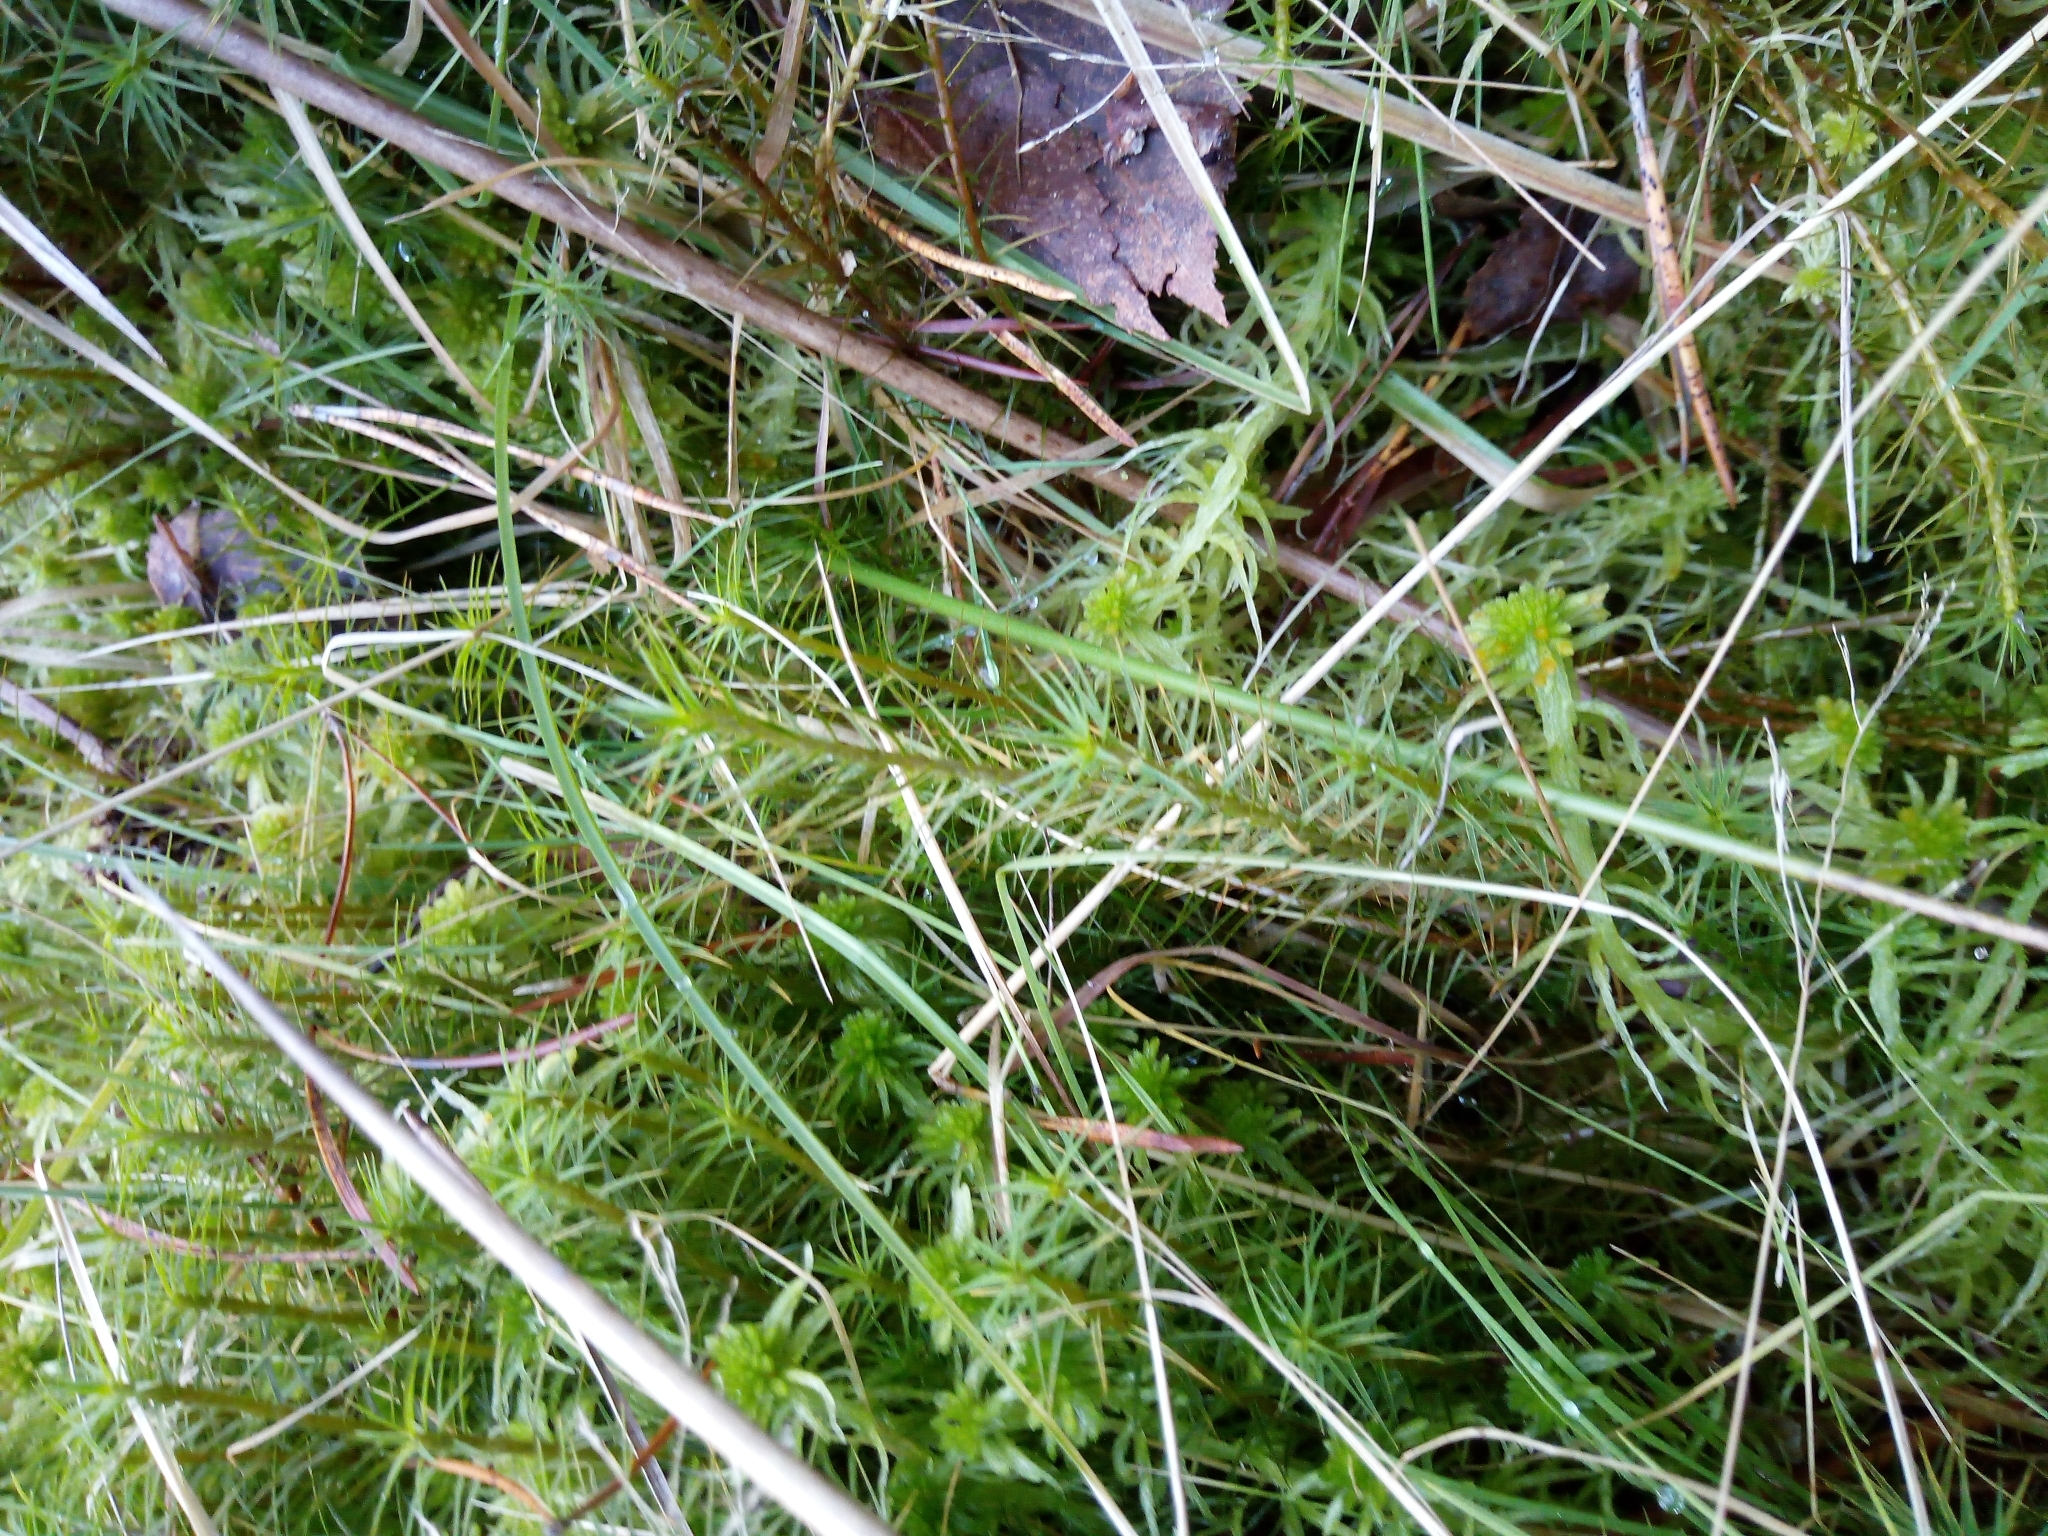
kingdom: Plantae
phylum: Bryophyta
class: Polytrichopsida
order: Polytrichales
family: Polytrichaceae
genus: Polytrichum
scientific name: Polytrichum commune
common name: Common haircap
